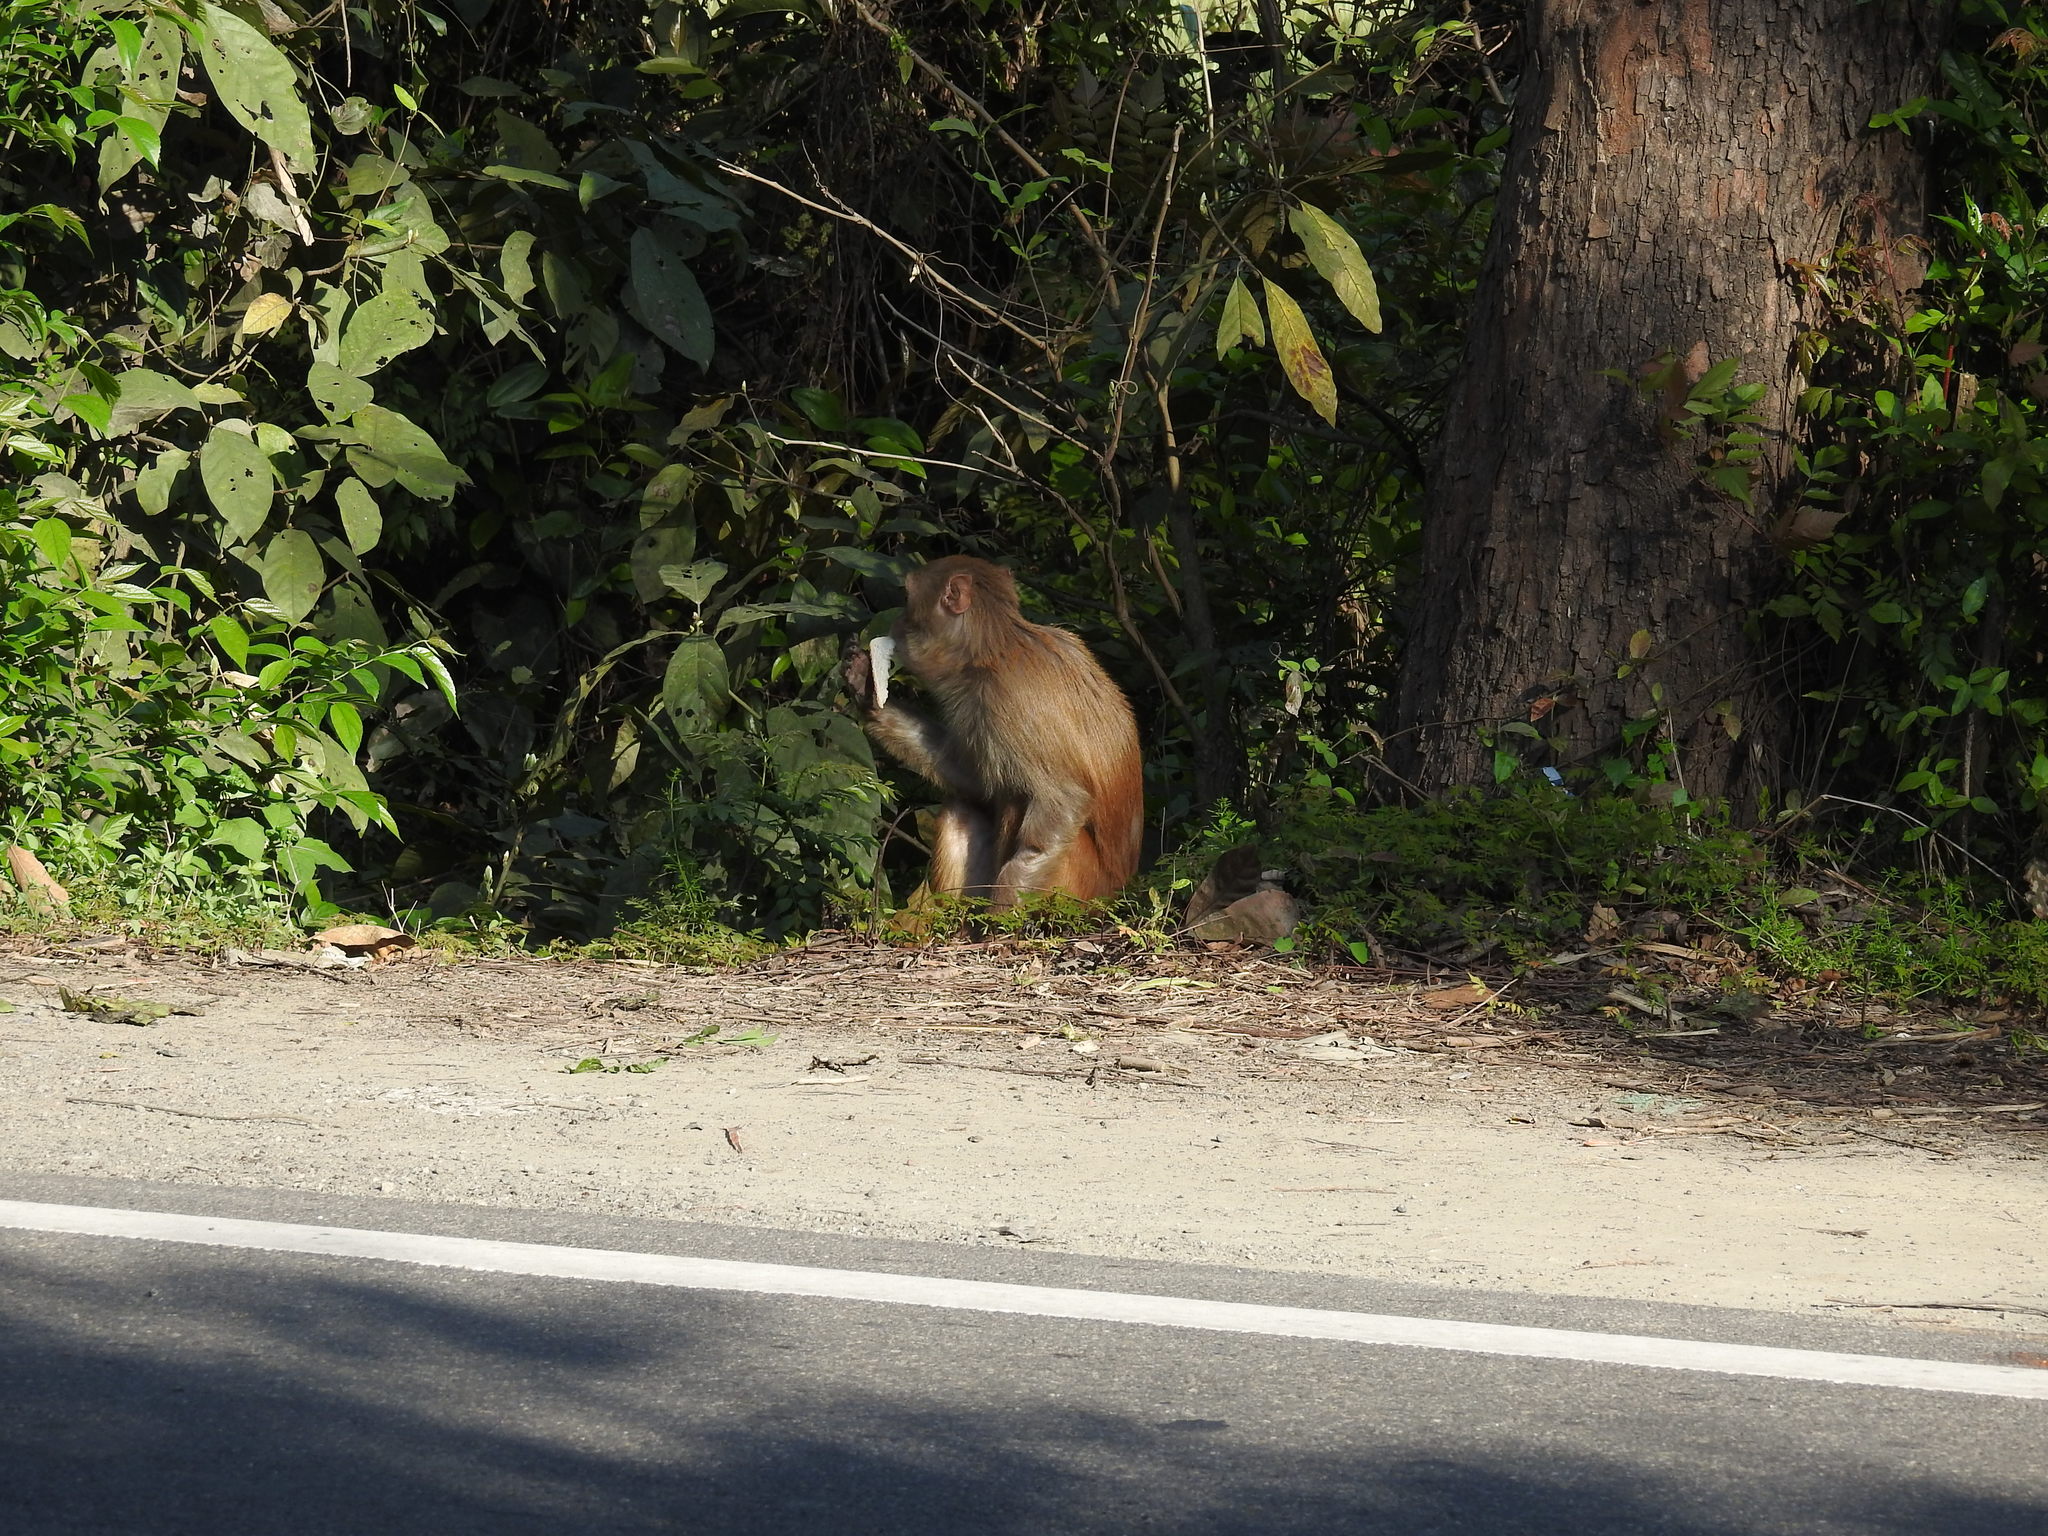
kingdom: Animalia
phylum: Chordata
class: Mammalia
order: Primates
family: Cercopithecidae
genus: Macaca
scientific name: Macaca mulatta
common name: Rhesus monkey
